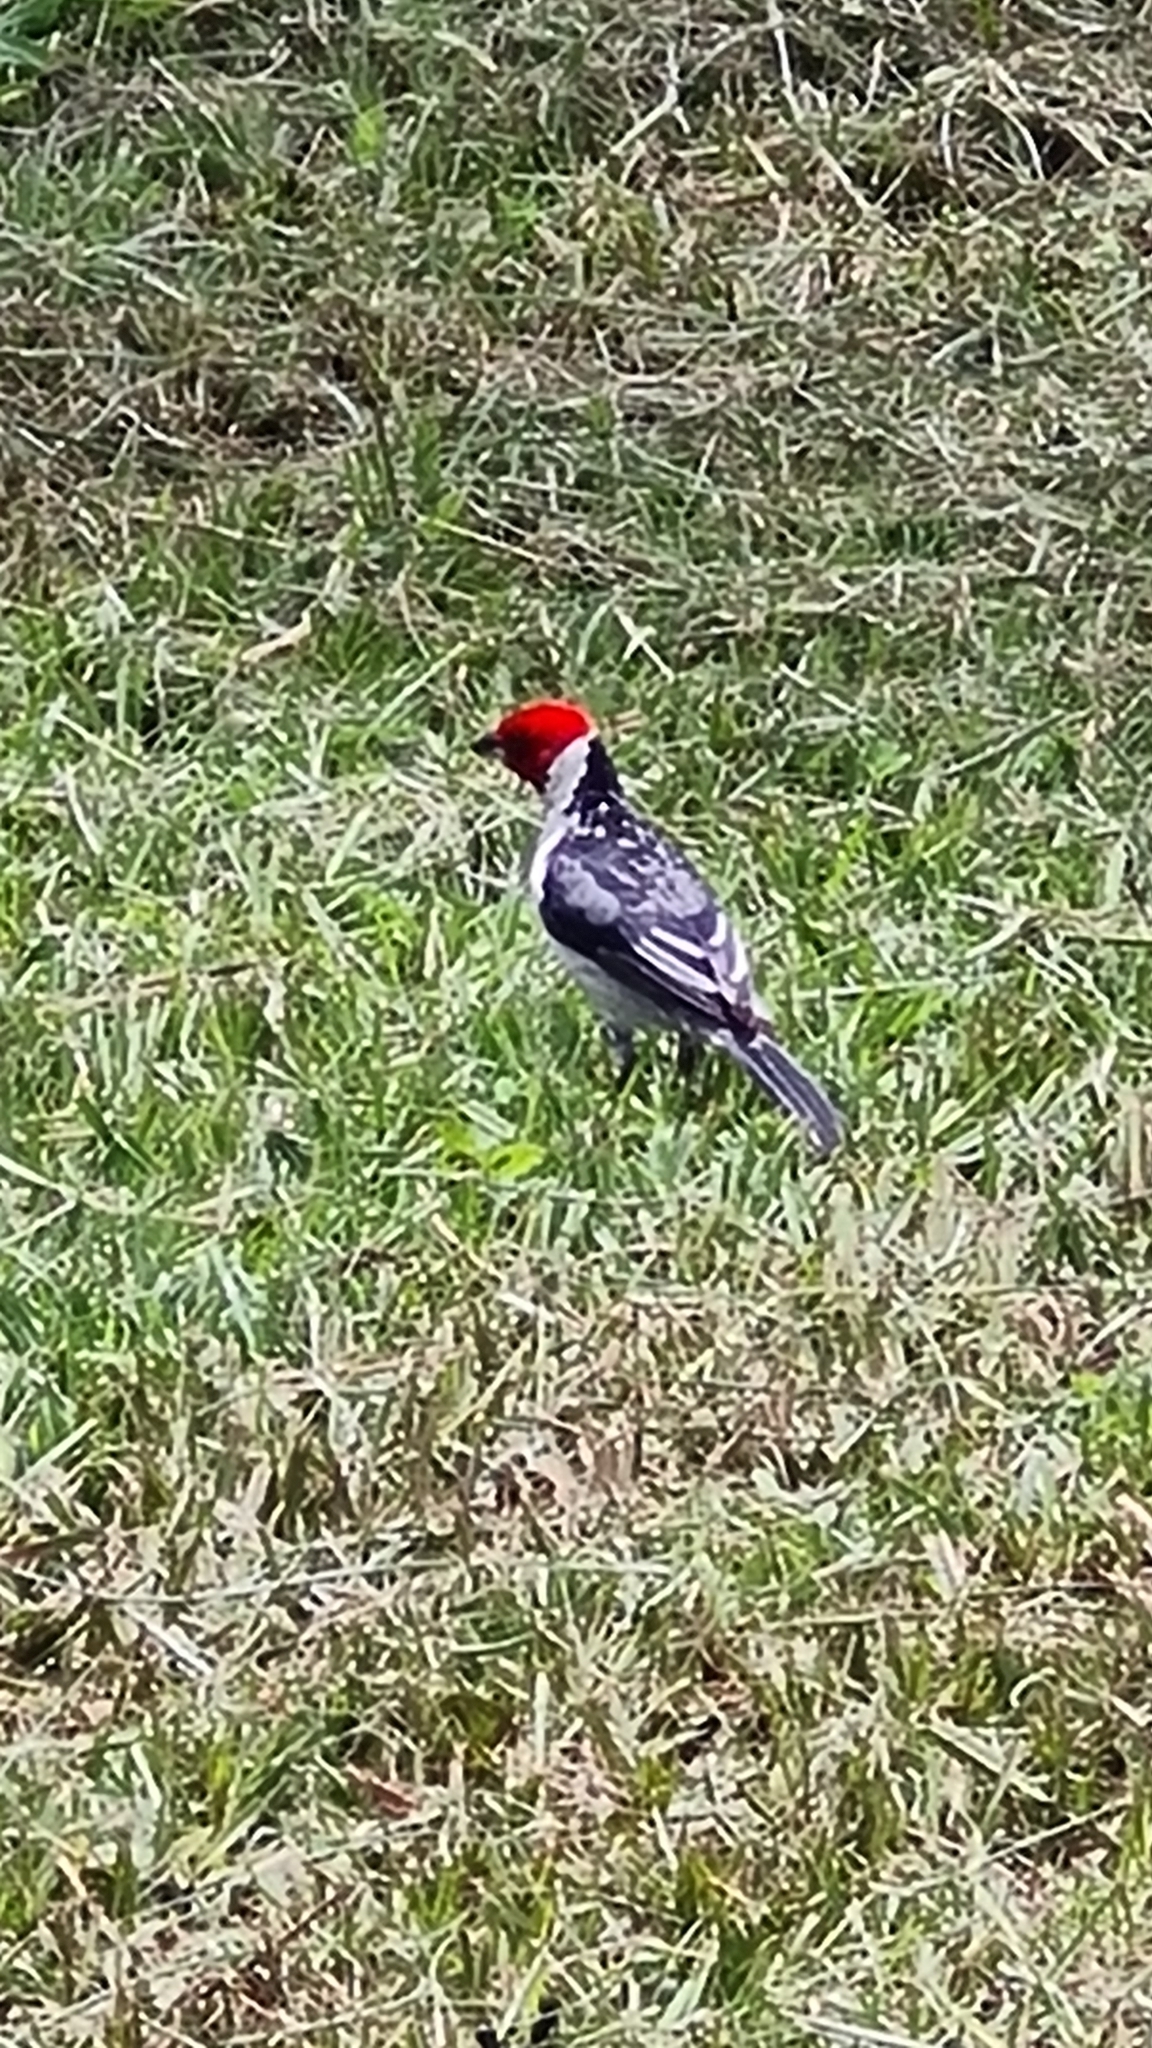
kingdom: Animalia
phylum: Chordata
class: Aves
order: Passeriformes
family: Thraupidae
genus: Paroaria
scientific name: Paroaria dominicana
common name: Red-cowled cardinal
